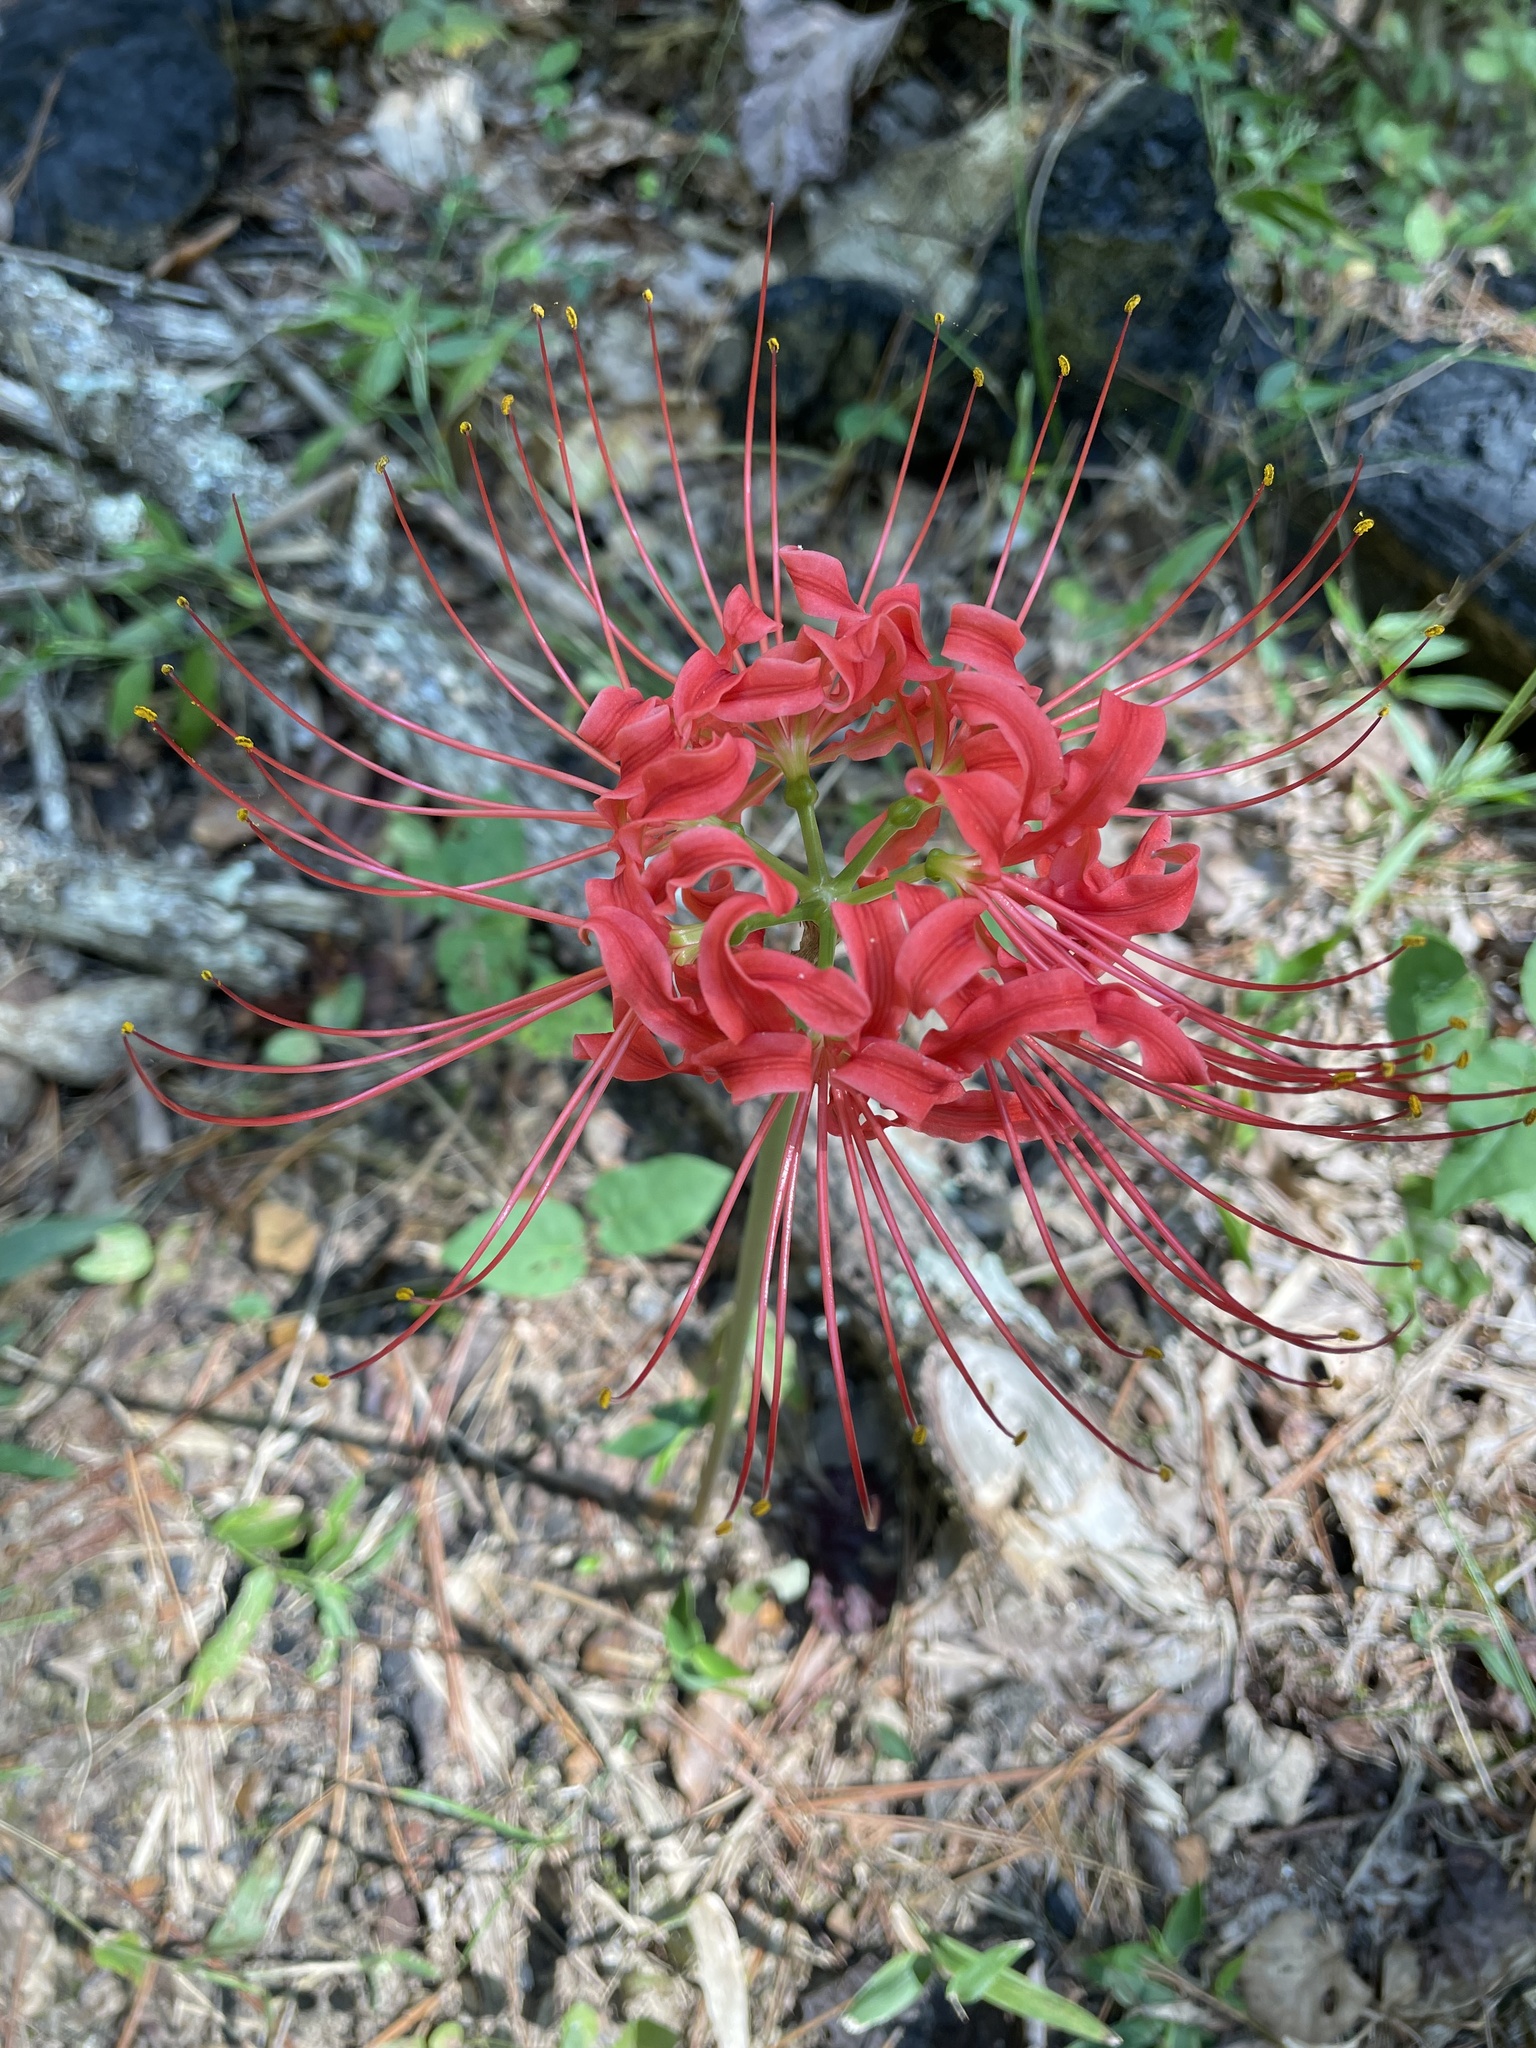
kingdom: Plantae
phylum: Tracheophyta
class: Liliopsida
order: Asparagales
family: Amaryllidaceae
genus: Lycoris
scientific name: Lycoris radiata
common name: Red spider lily
